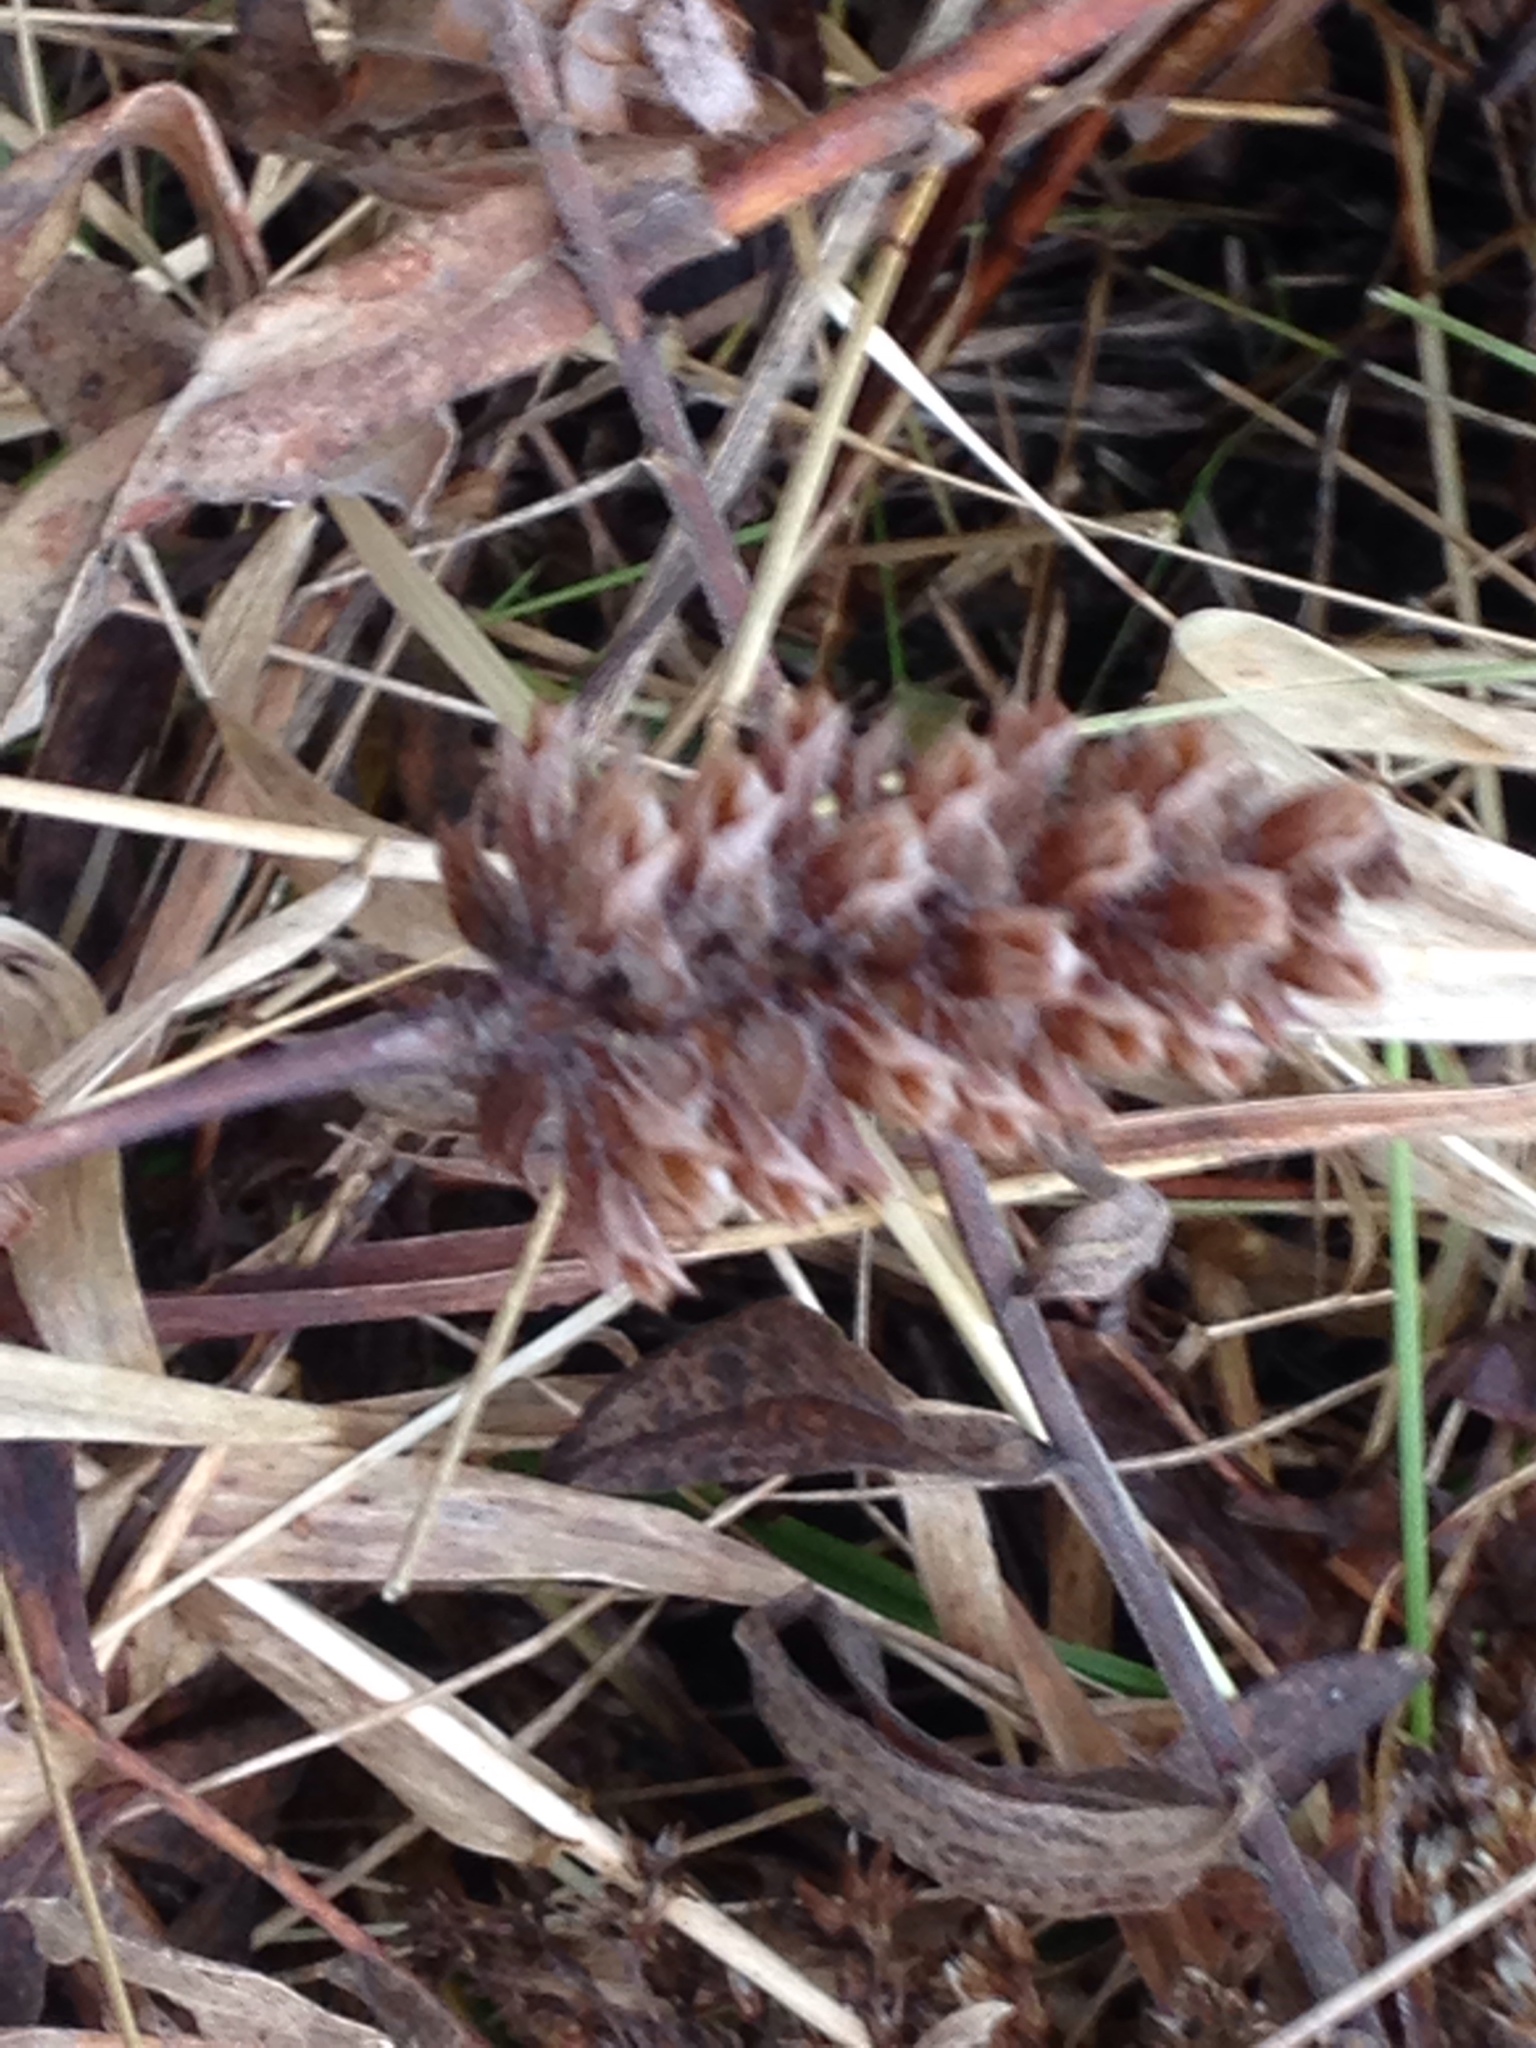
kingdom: Plantae
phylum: Tracheophyta
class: Magnoliopsida
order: Lamiales
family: Lamiaceae
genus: Prunella
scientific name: Prunella vulgaris
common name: Heal-all
